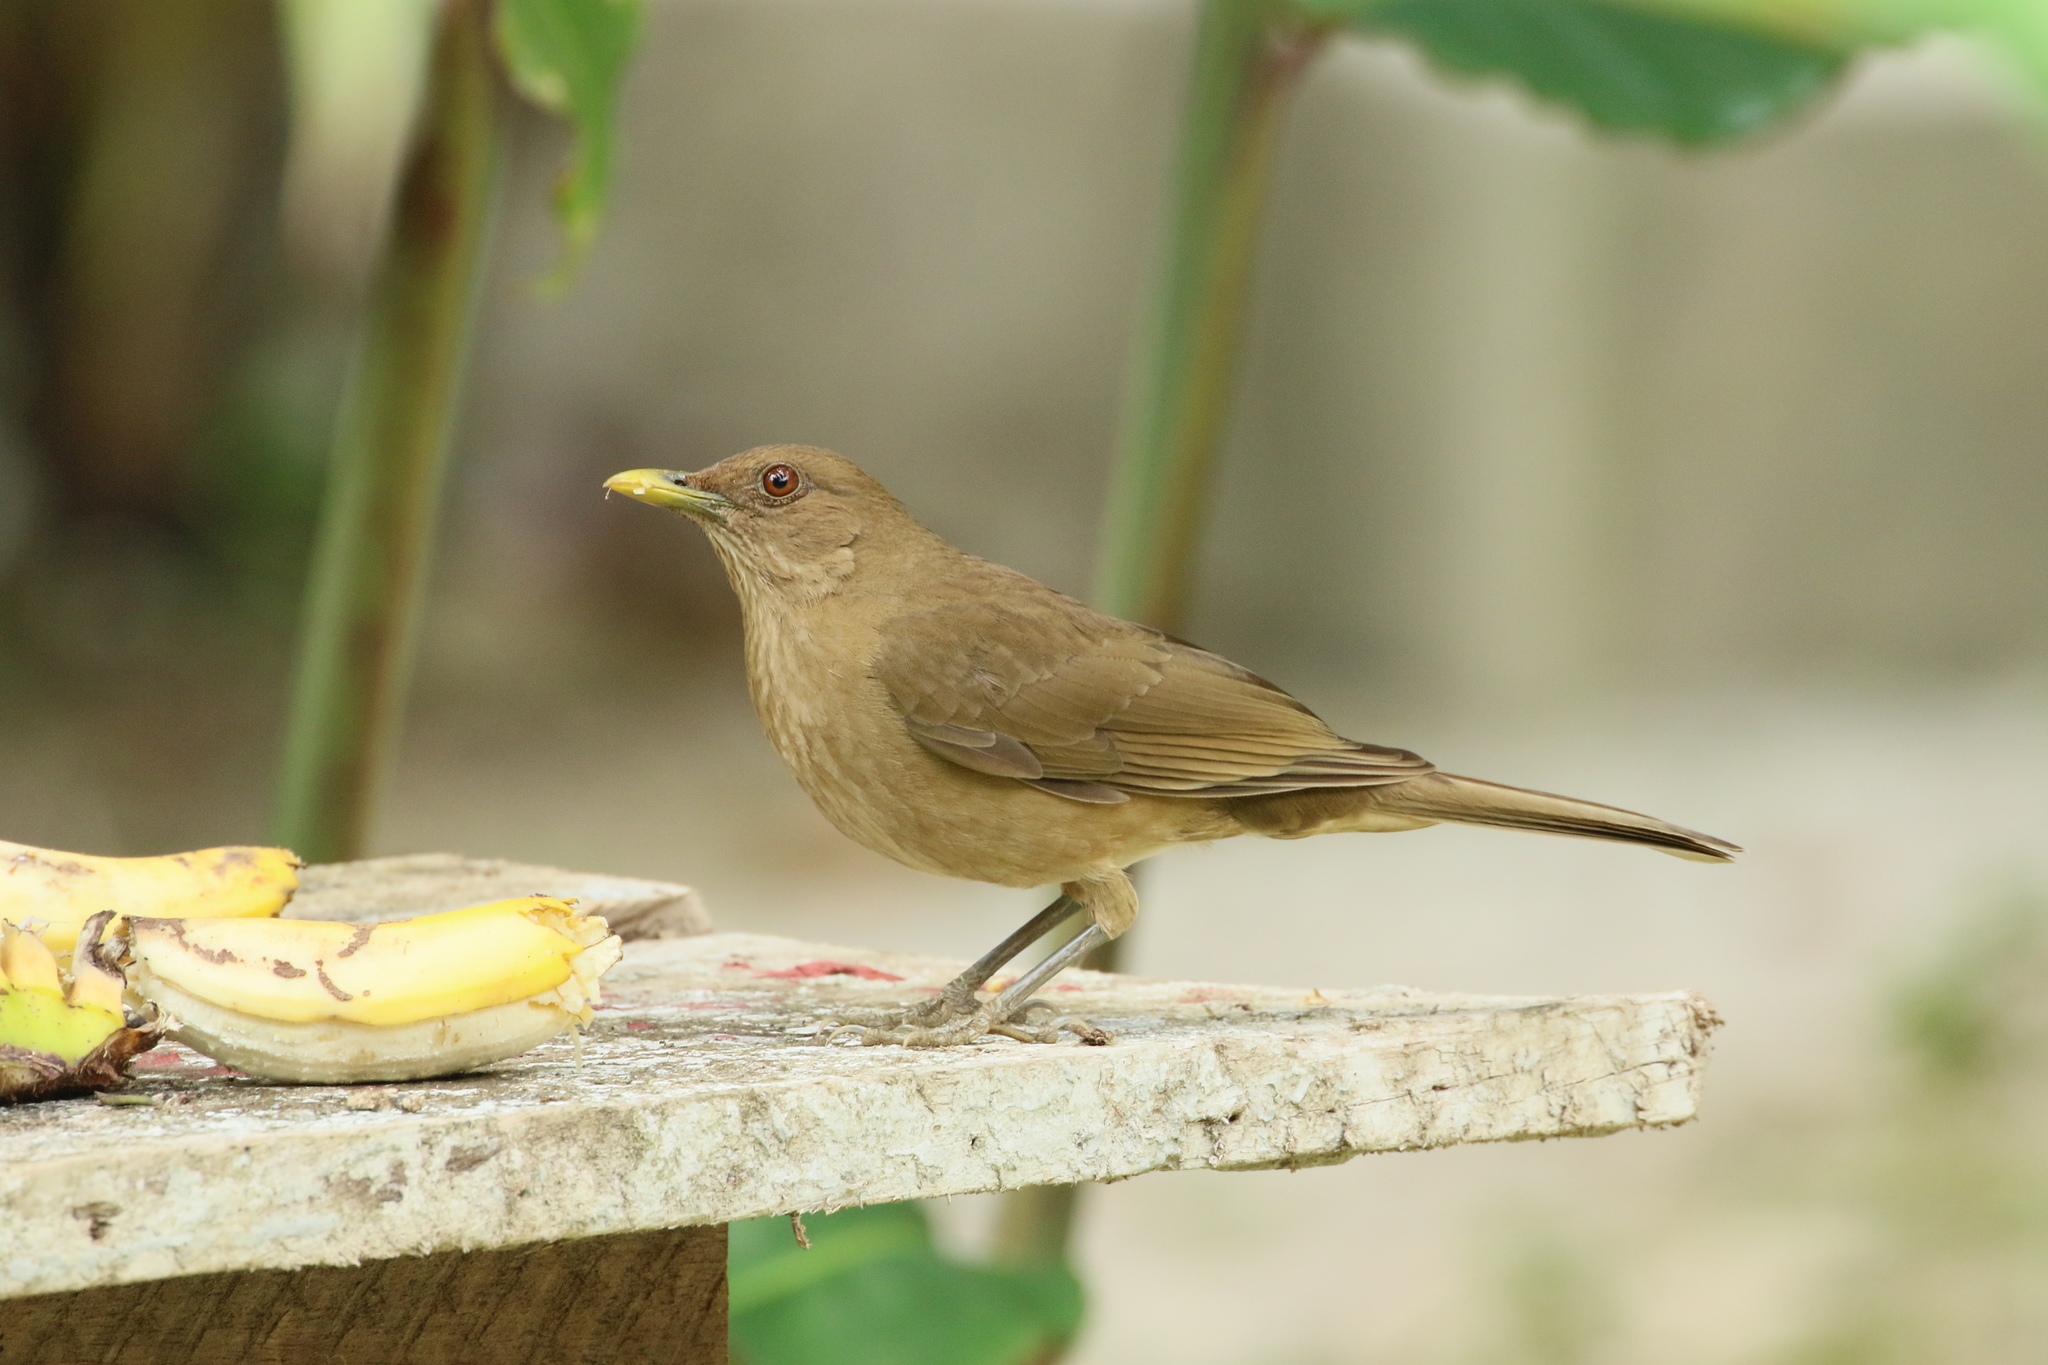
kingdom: Animalia
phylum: Chordata
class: Aves
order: Passeriformes
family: Turdidae
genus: Turdus
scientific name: Turdus grayi
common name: Clay-colored thrush
